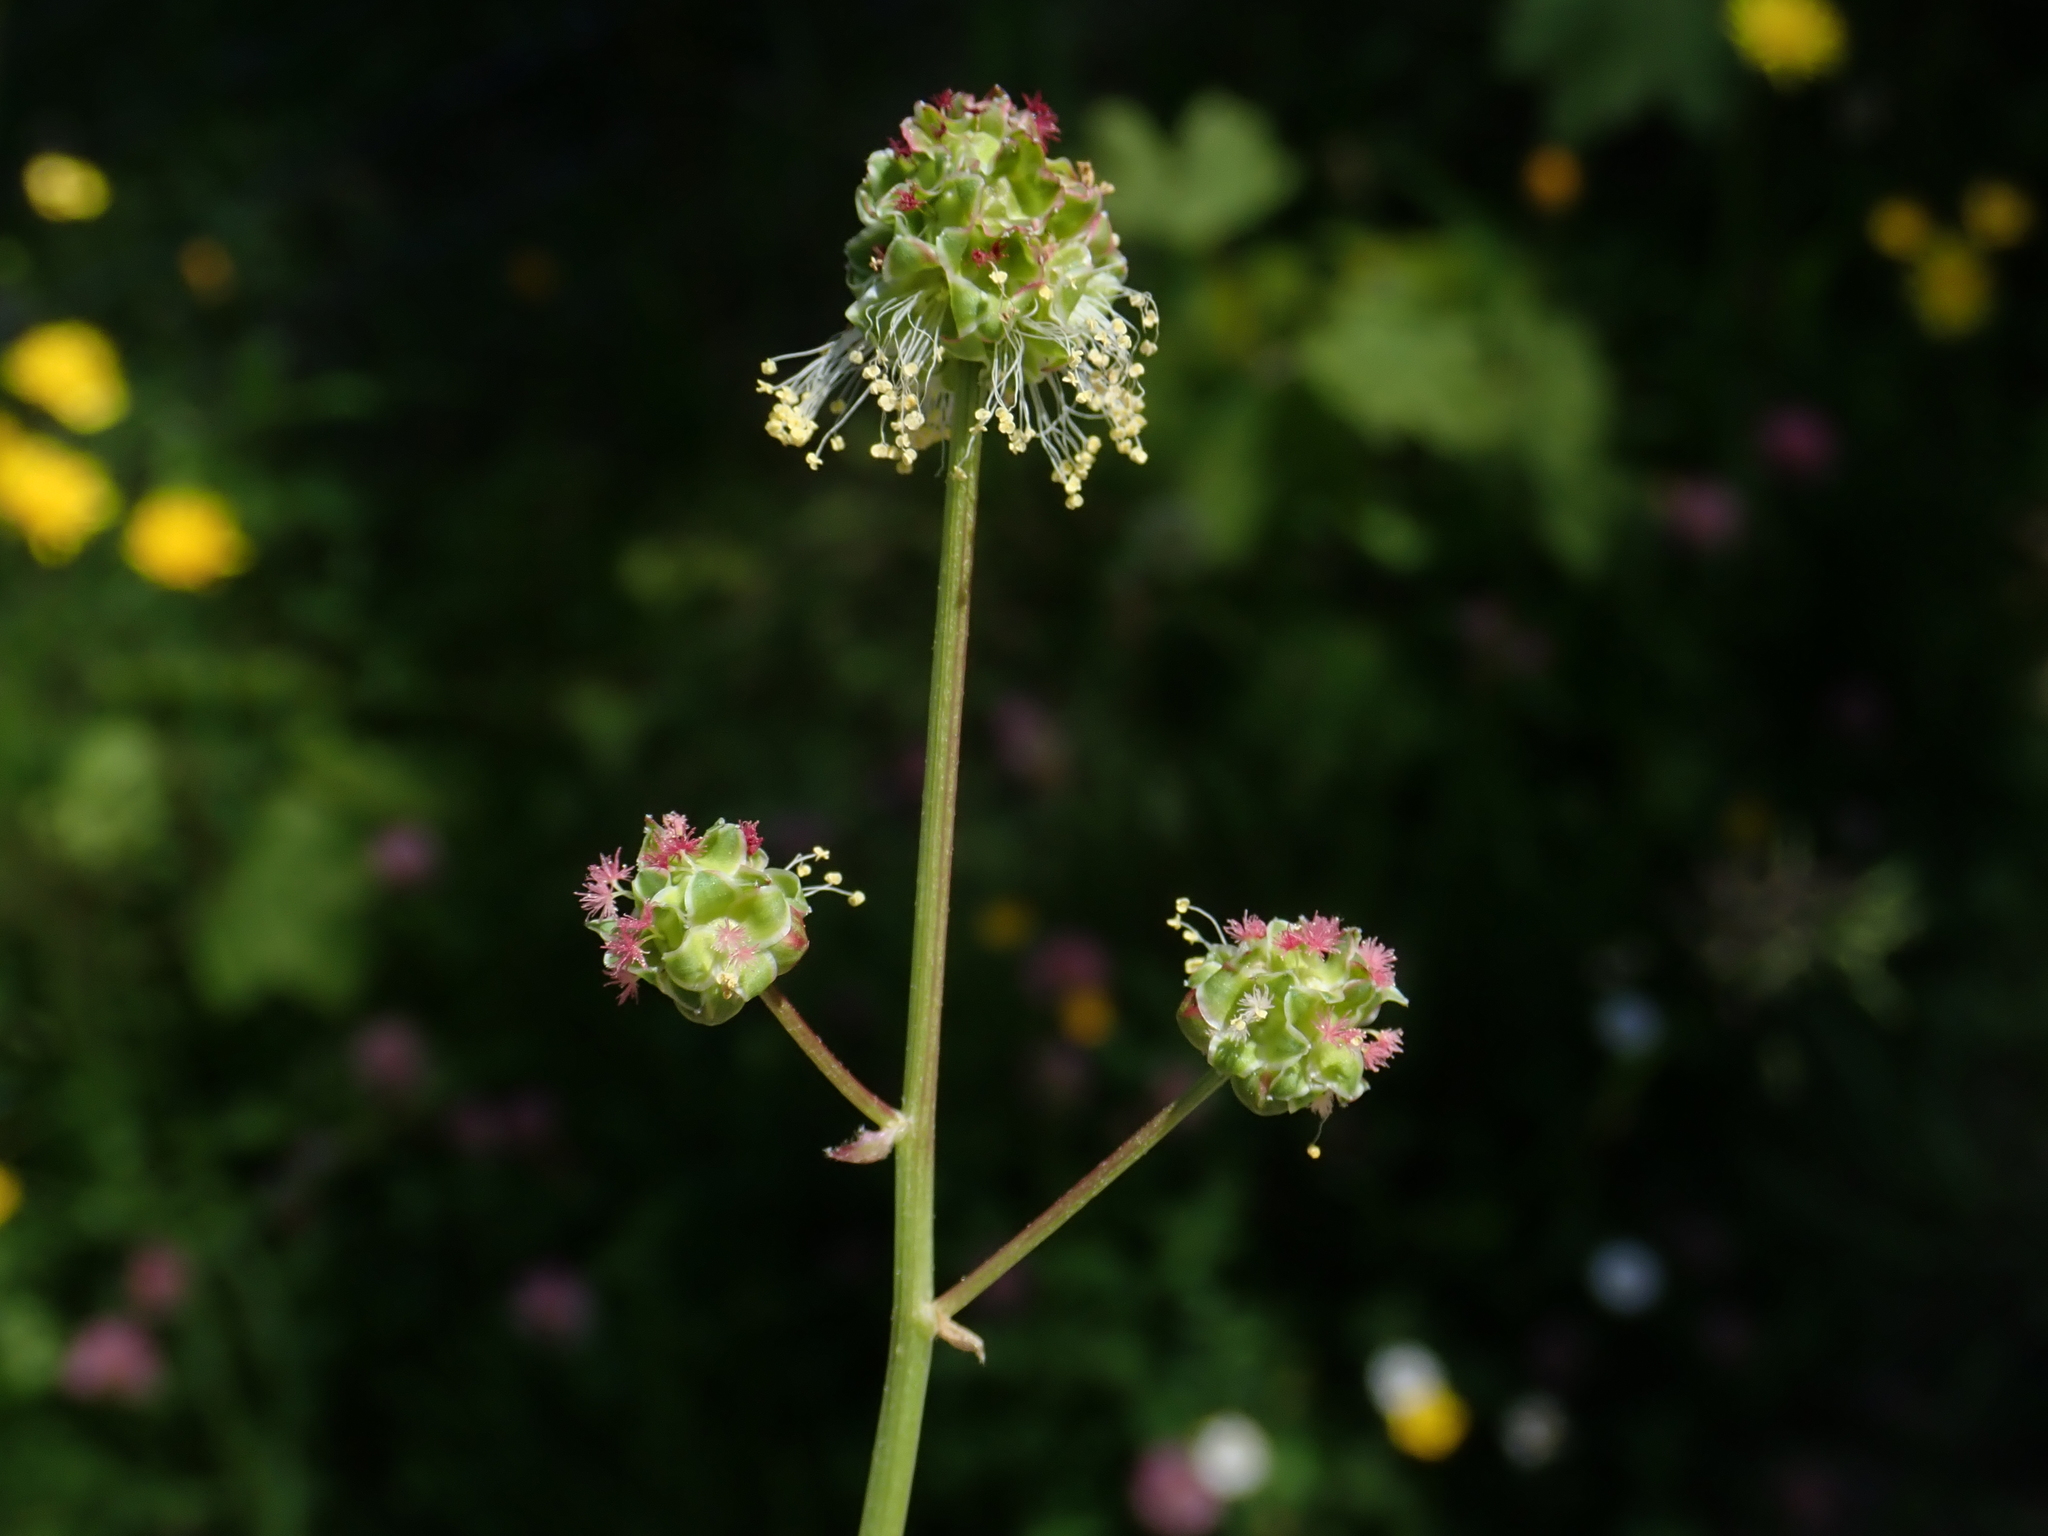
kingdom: Plantae
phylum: Tracheophyta
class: Magnoliopsida
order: Rosales
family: Rosaceae
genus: Poterium
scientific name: Poterium sanguisorba
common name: Salad burnet
